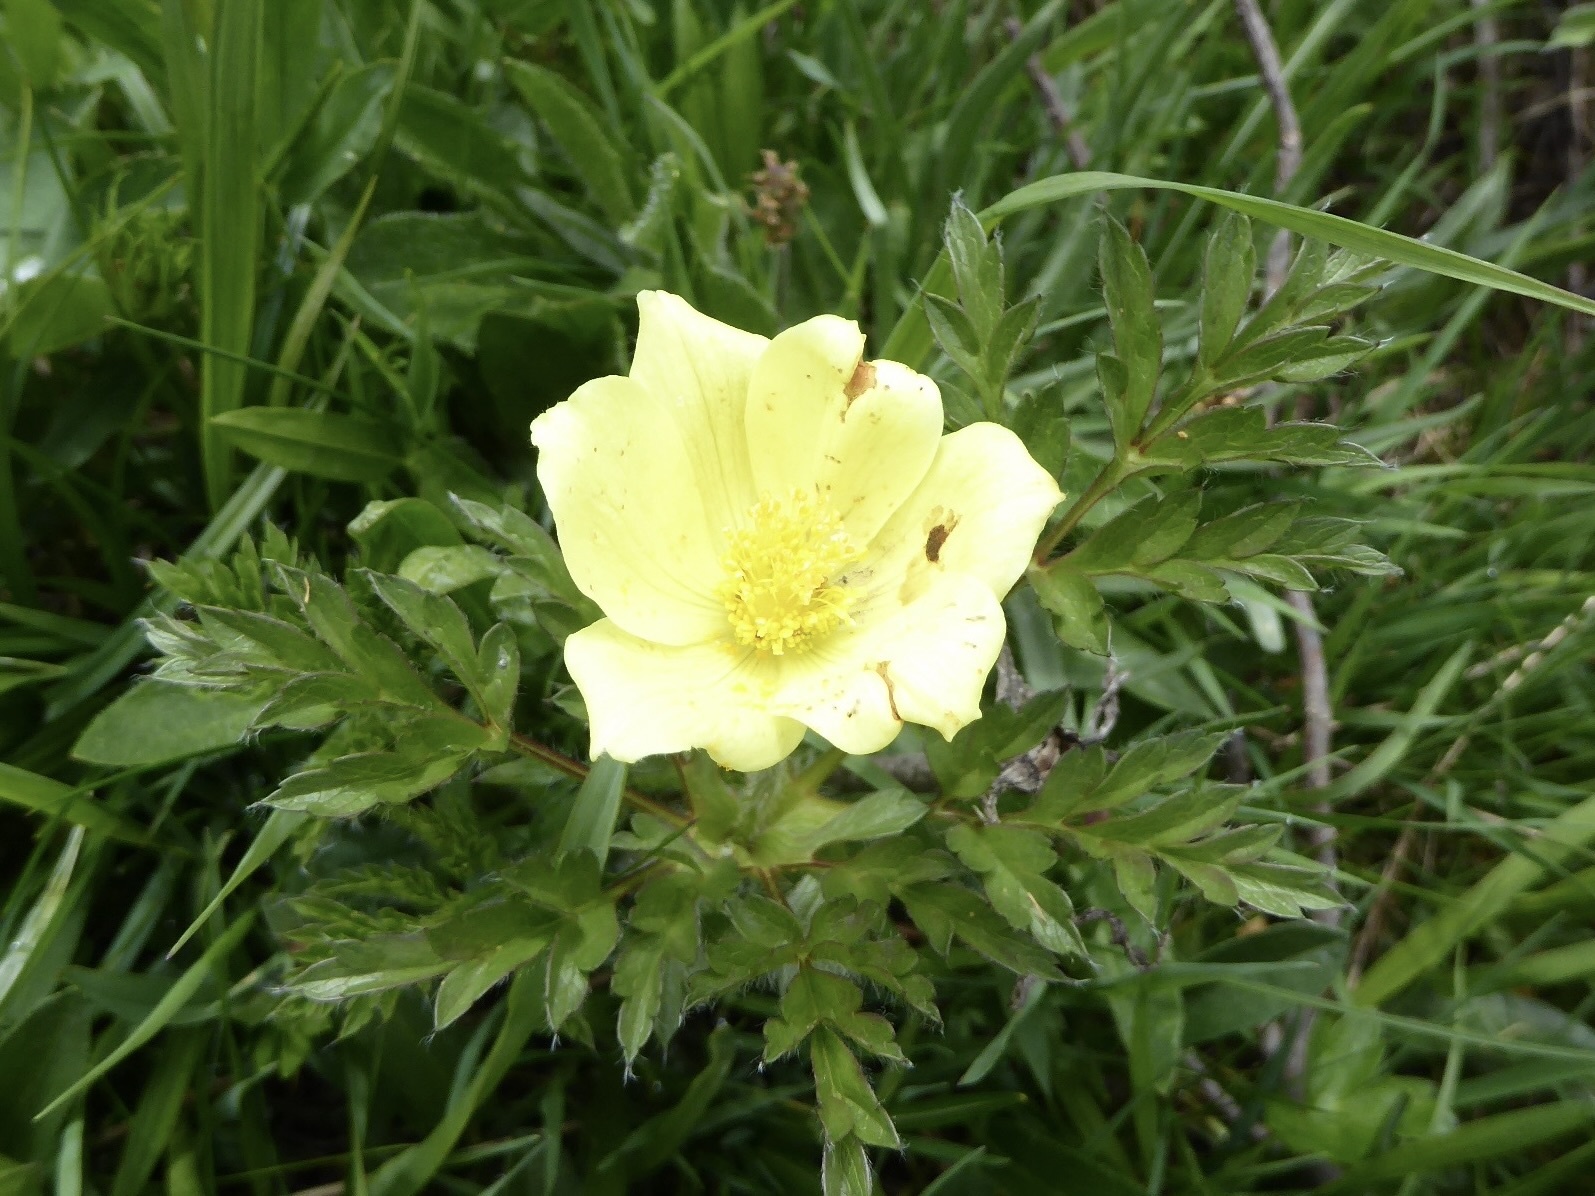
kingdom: Plantae
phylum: Tracheophyta
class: Magnoliopsida
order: Ranunculales
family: Ranunculaceae
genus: Pulsatilla
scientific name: Pulsatilla alpina
